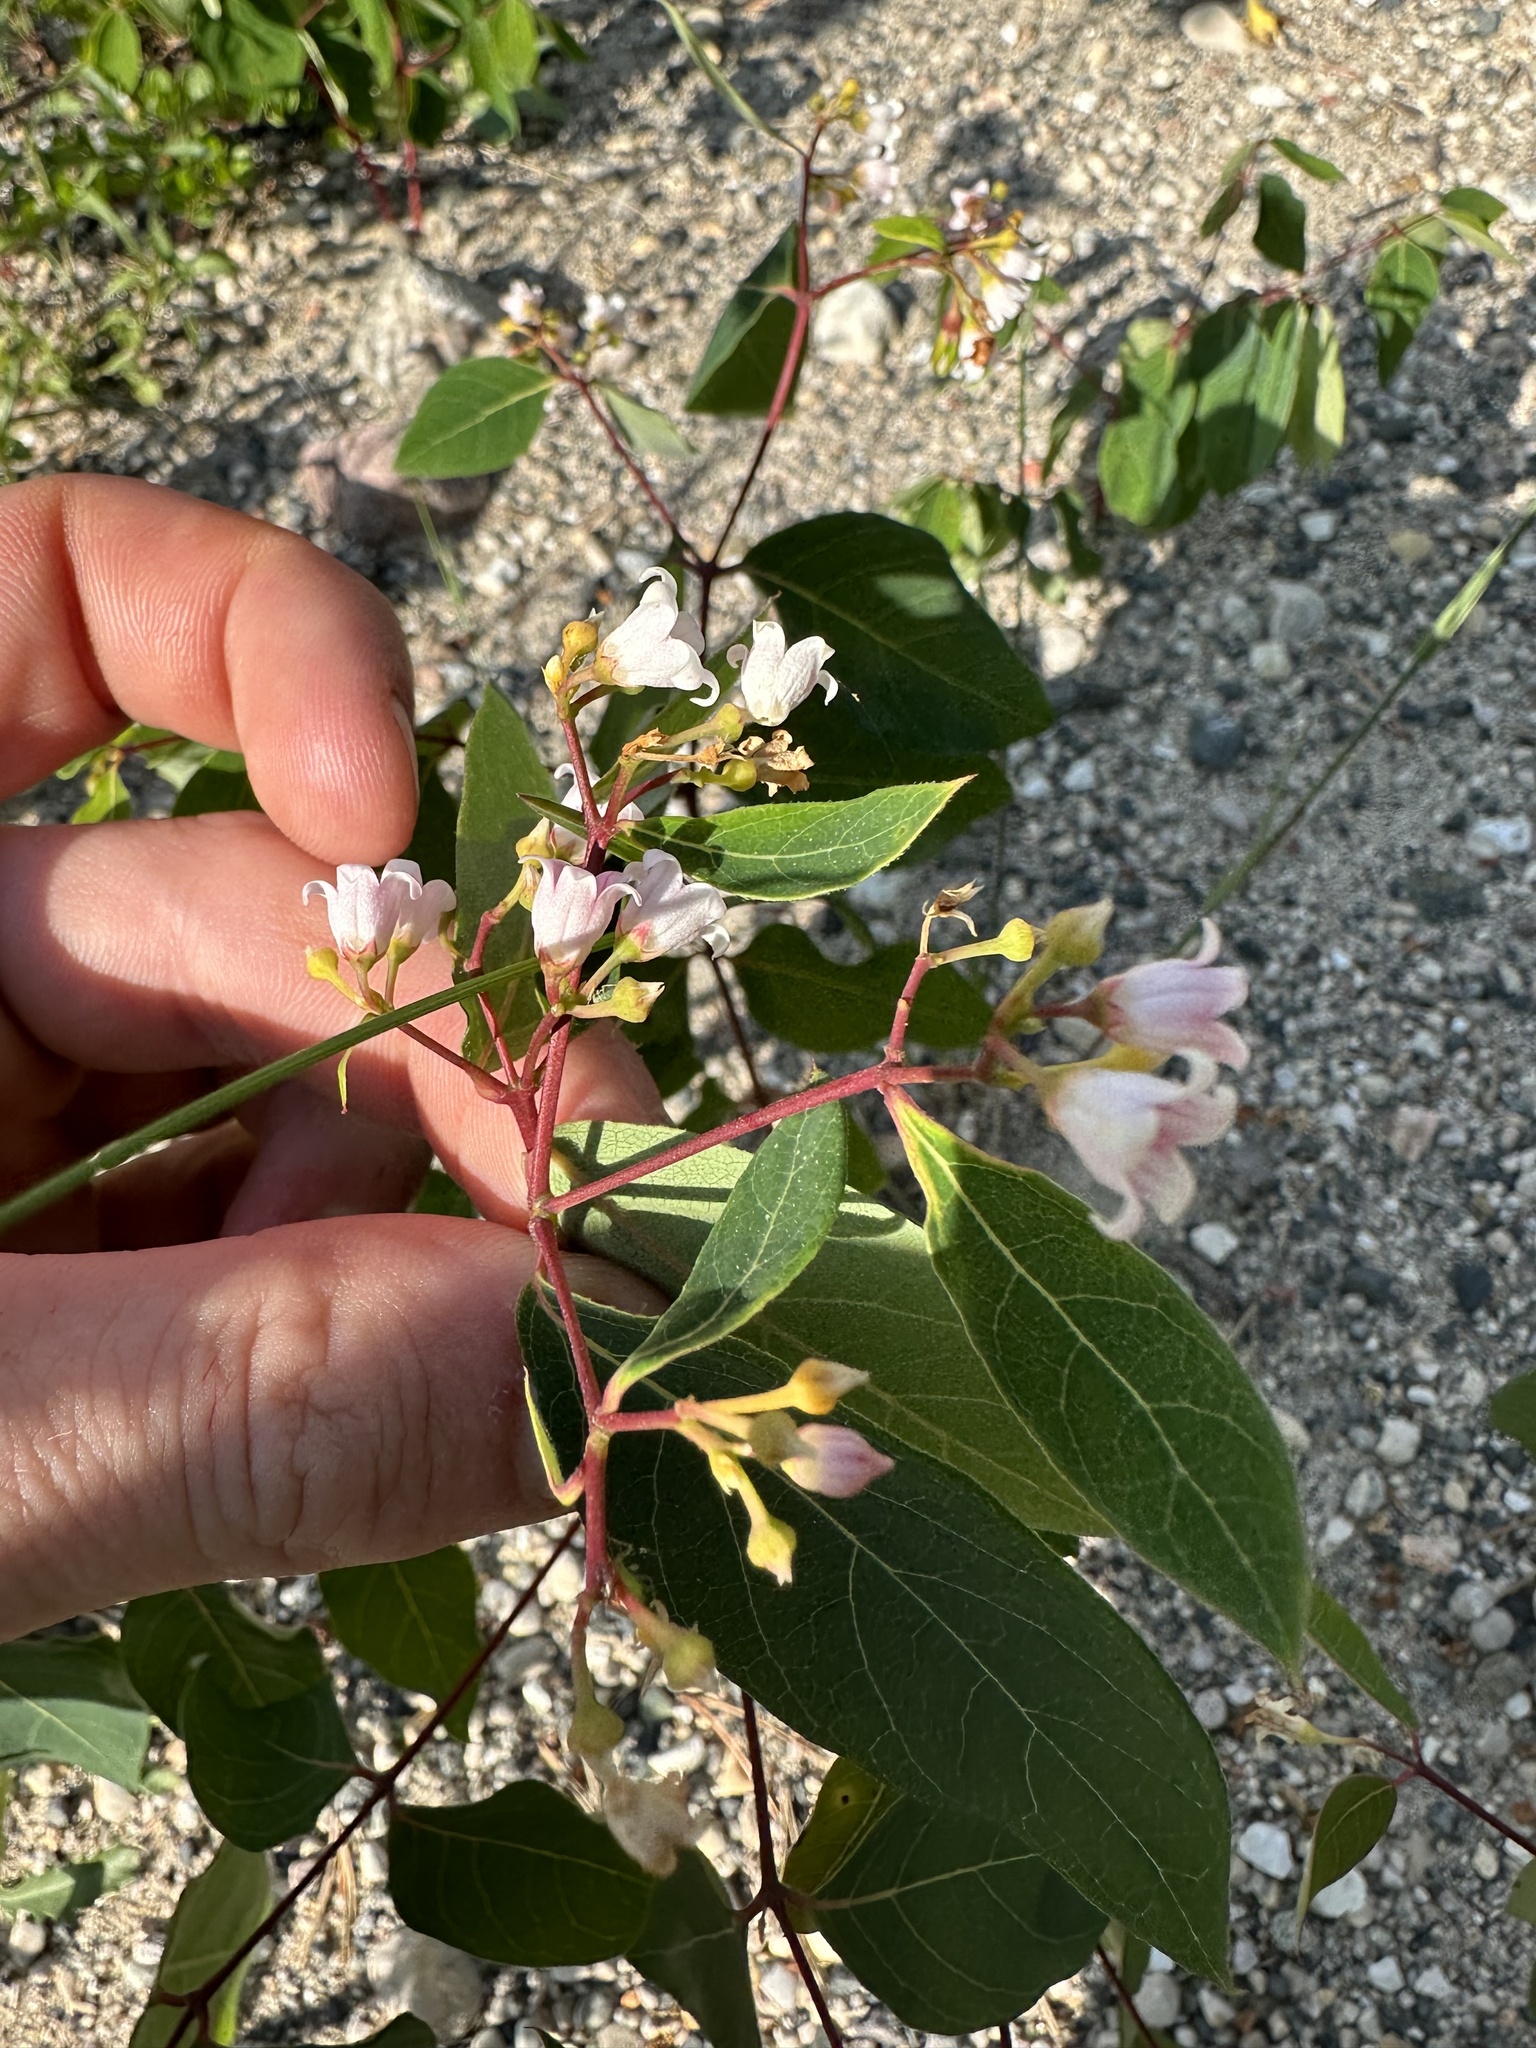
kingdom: Plantae
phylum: Tracheophyta
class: Magnoliopsida
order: Gentianales
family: Apocynaceae
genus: Apocynum
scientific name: Apocynum androsaemifolium
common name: Spreading dogbane
